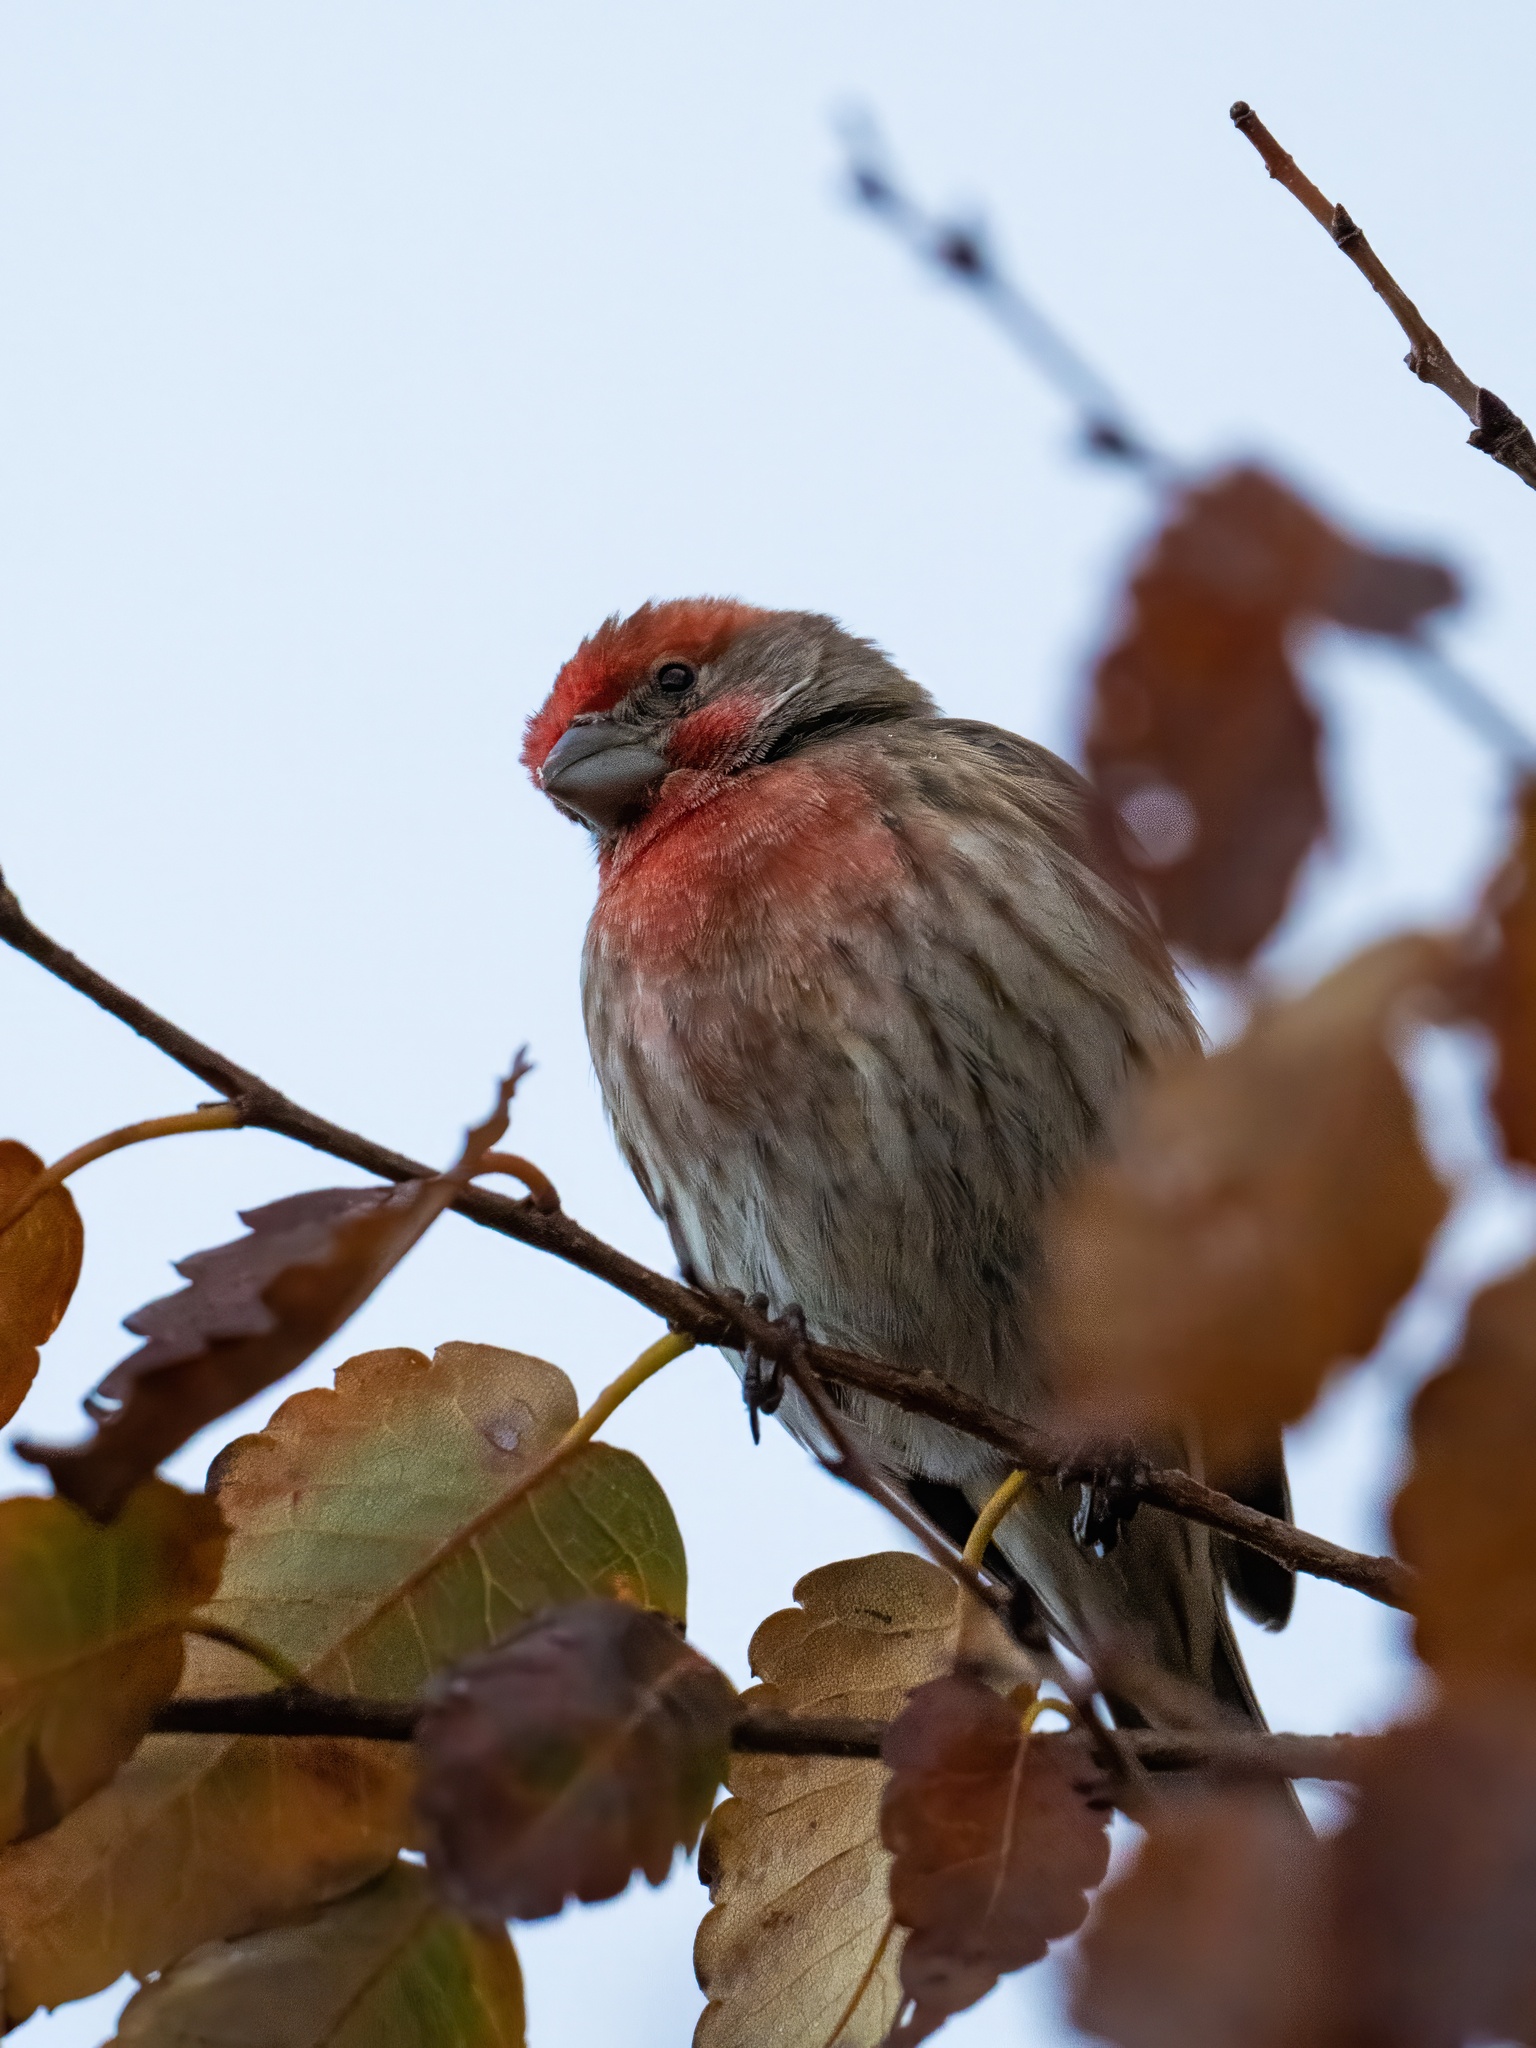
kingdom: Animalia
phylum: Chordata
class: Aves
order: Passeriformes
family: Fringillidae
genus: Haemorhous
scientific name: Haemorhous mexicanus
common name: House finch
